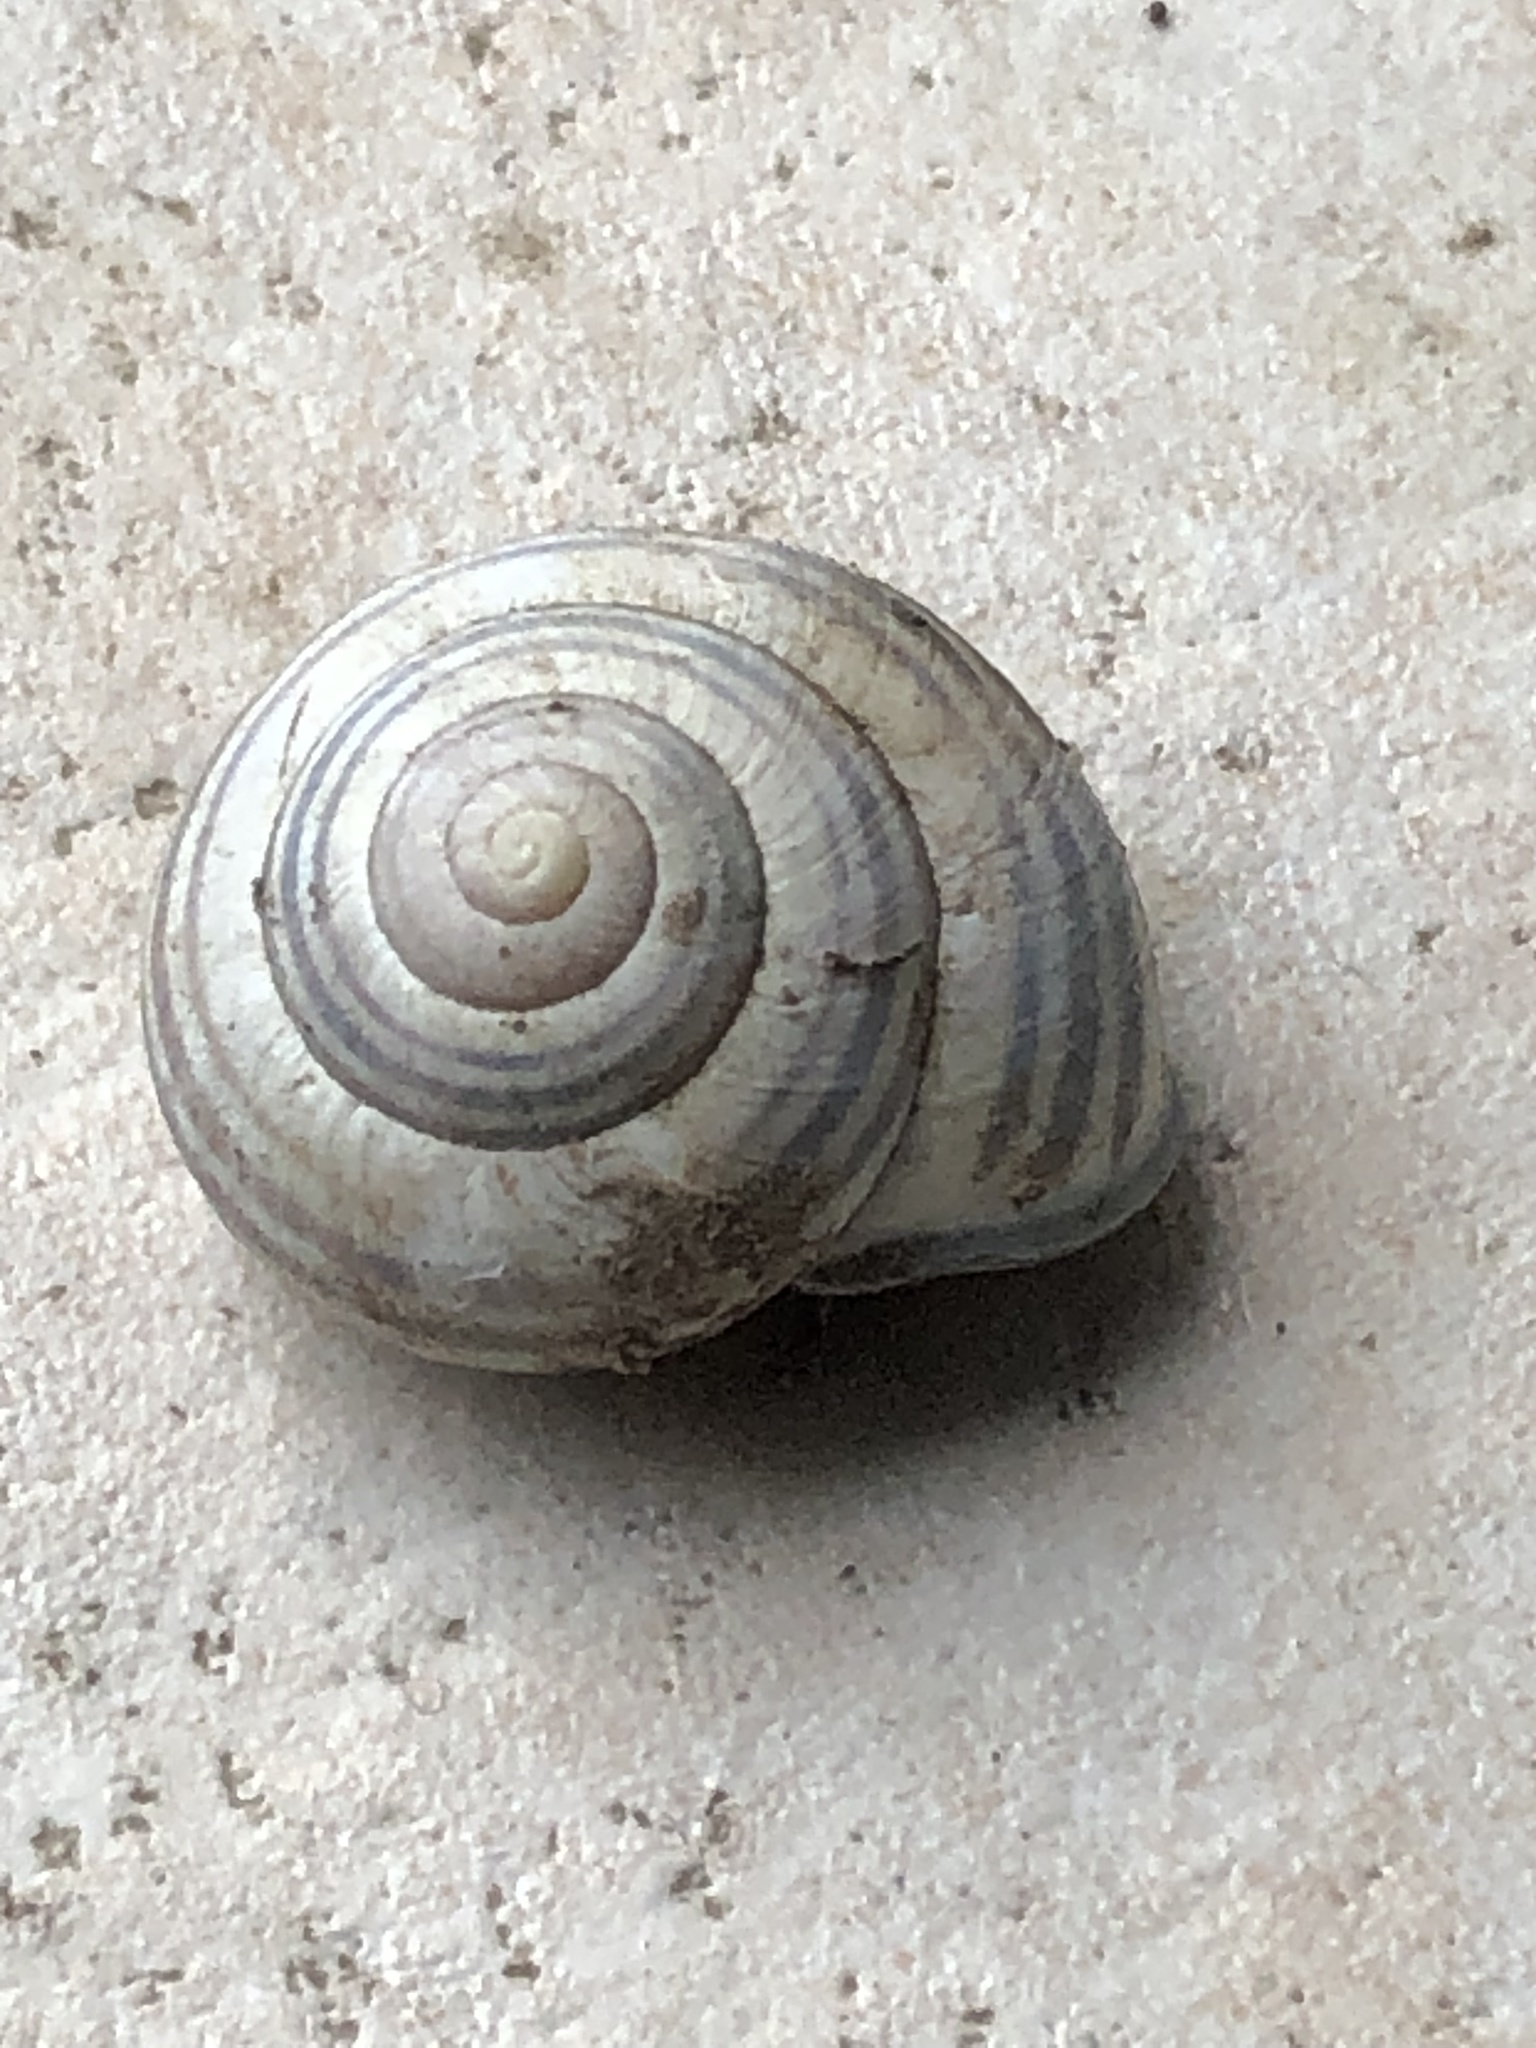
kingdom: Animalia
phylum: Mollusca
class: Gastropoda
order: Stylommatophora
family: Helicidae
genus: Cepaea
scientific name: Cepaea nemoralis
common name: Grovesnail
